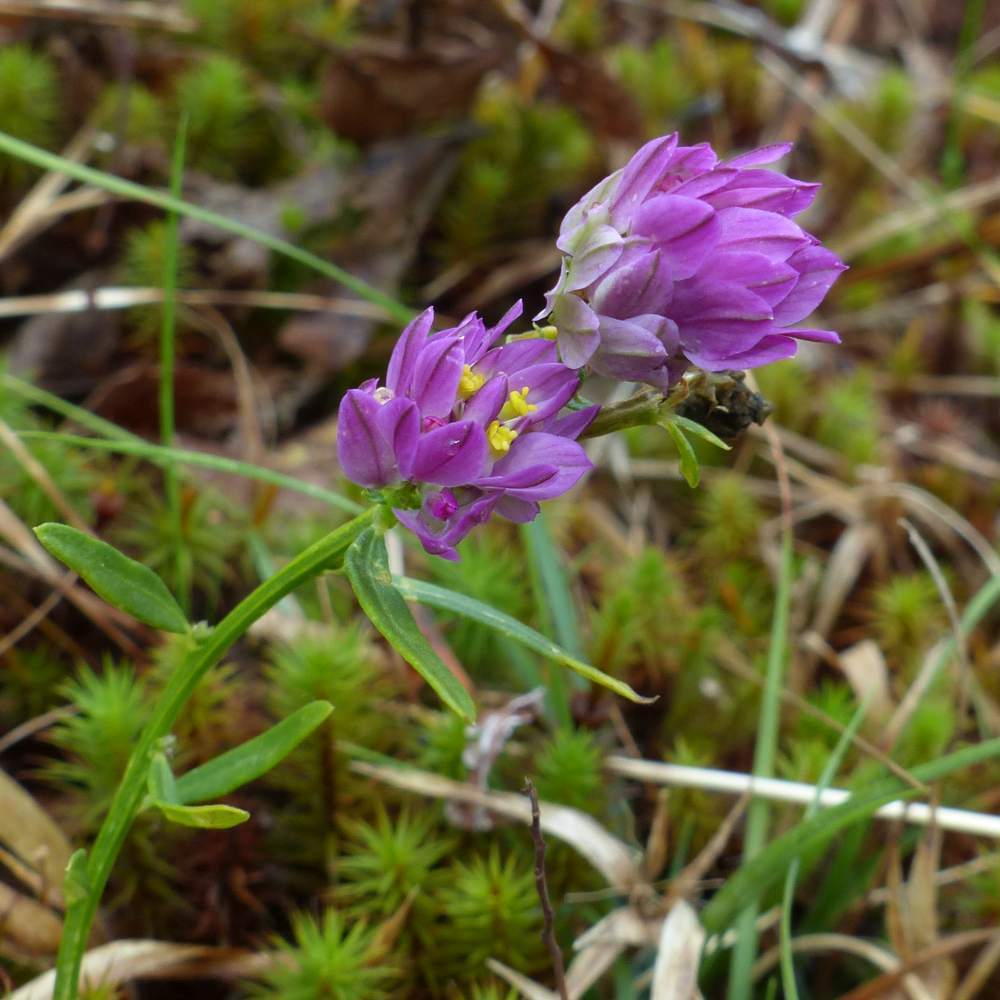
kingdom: Plantae
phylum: Tracheophyta
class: Magnoliopsida
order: Fabales
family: Polygalaceae
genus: Polygala
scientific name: Polygala sanguinea
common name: Blood milkwort
